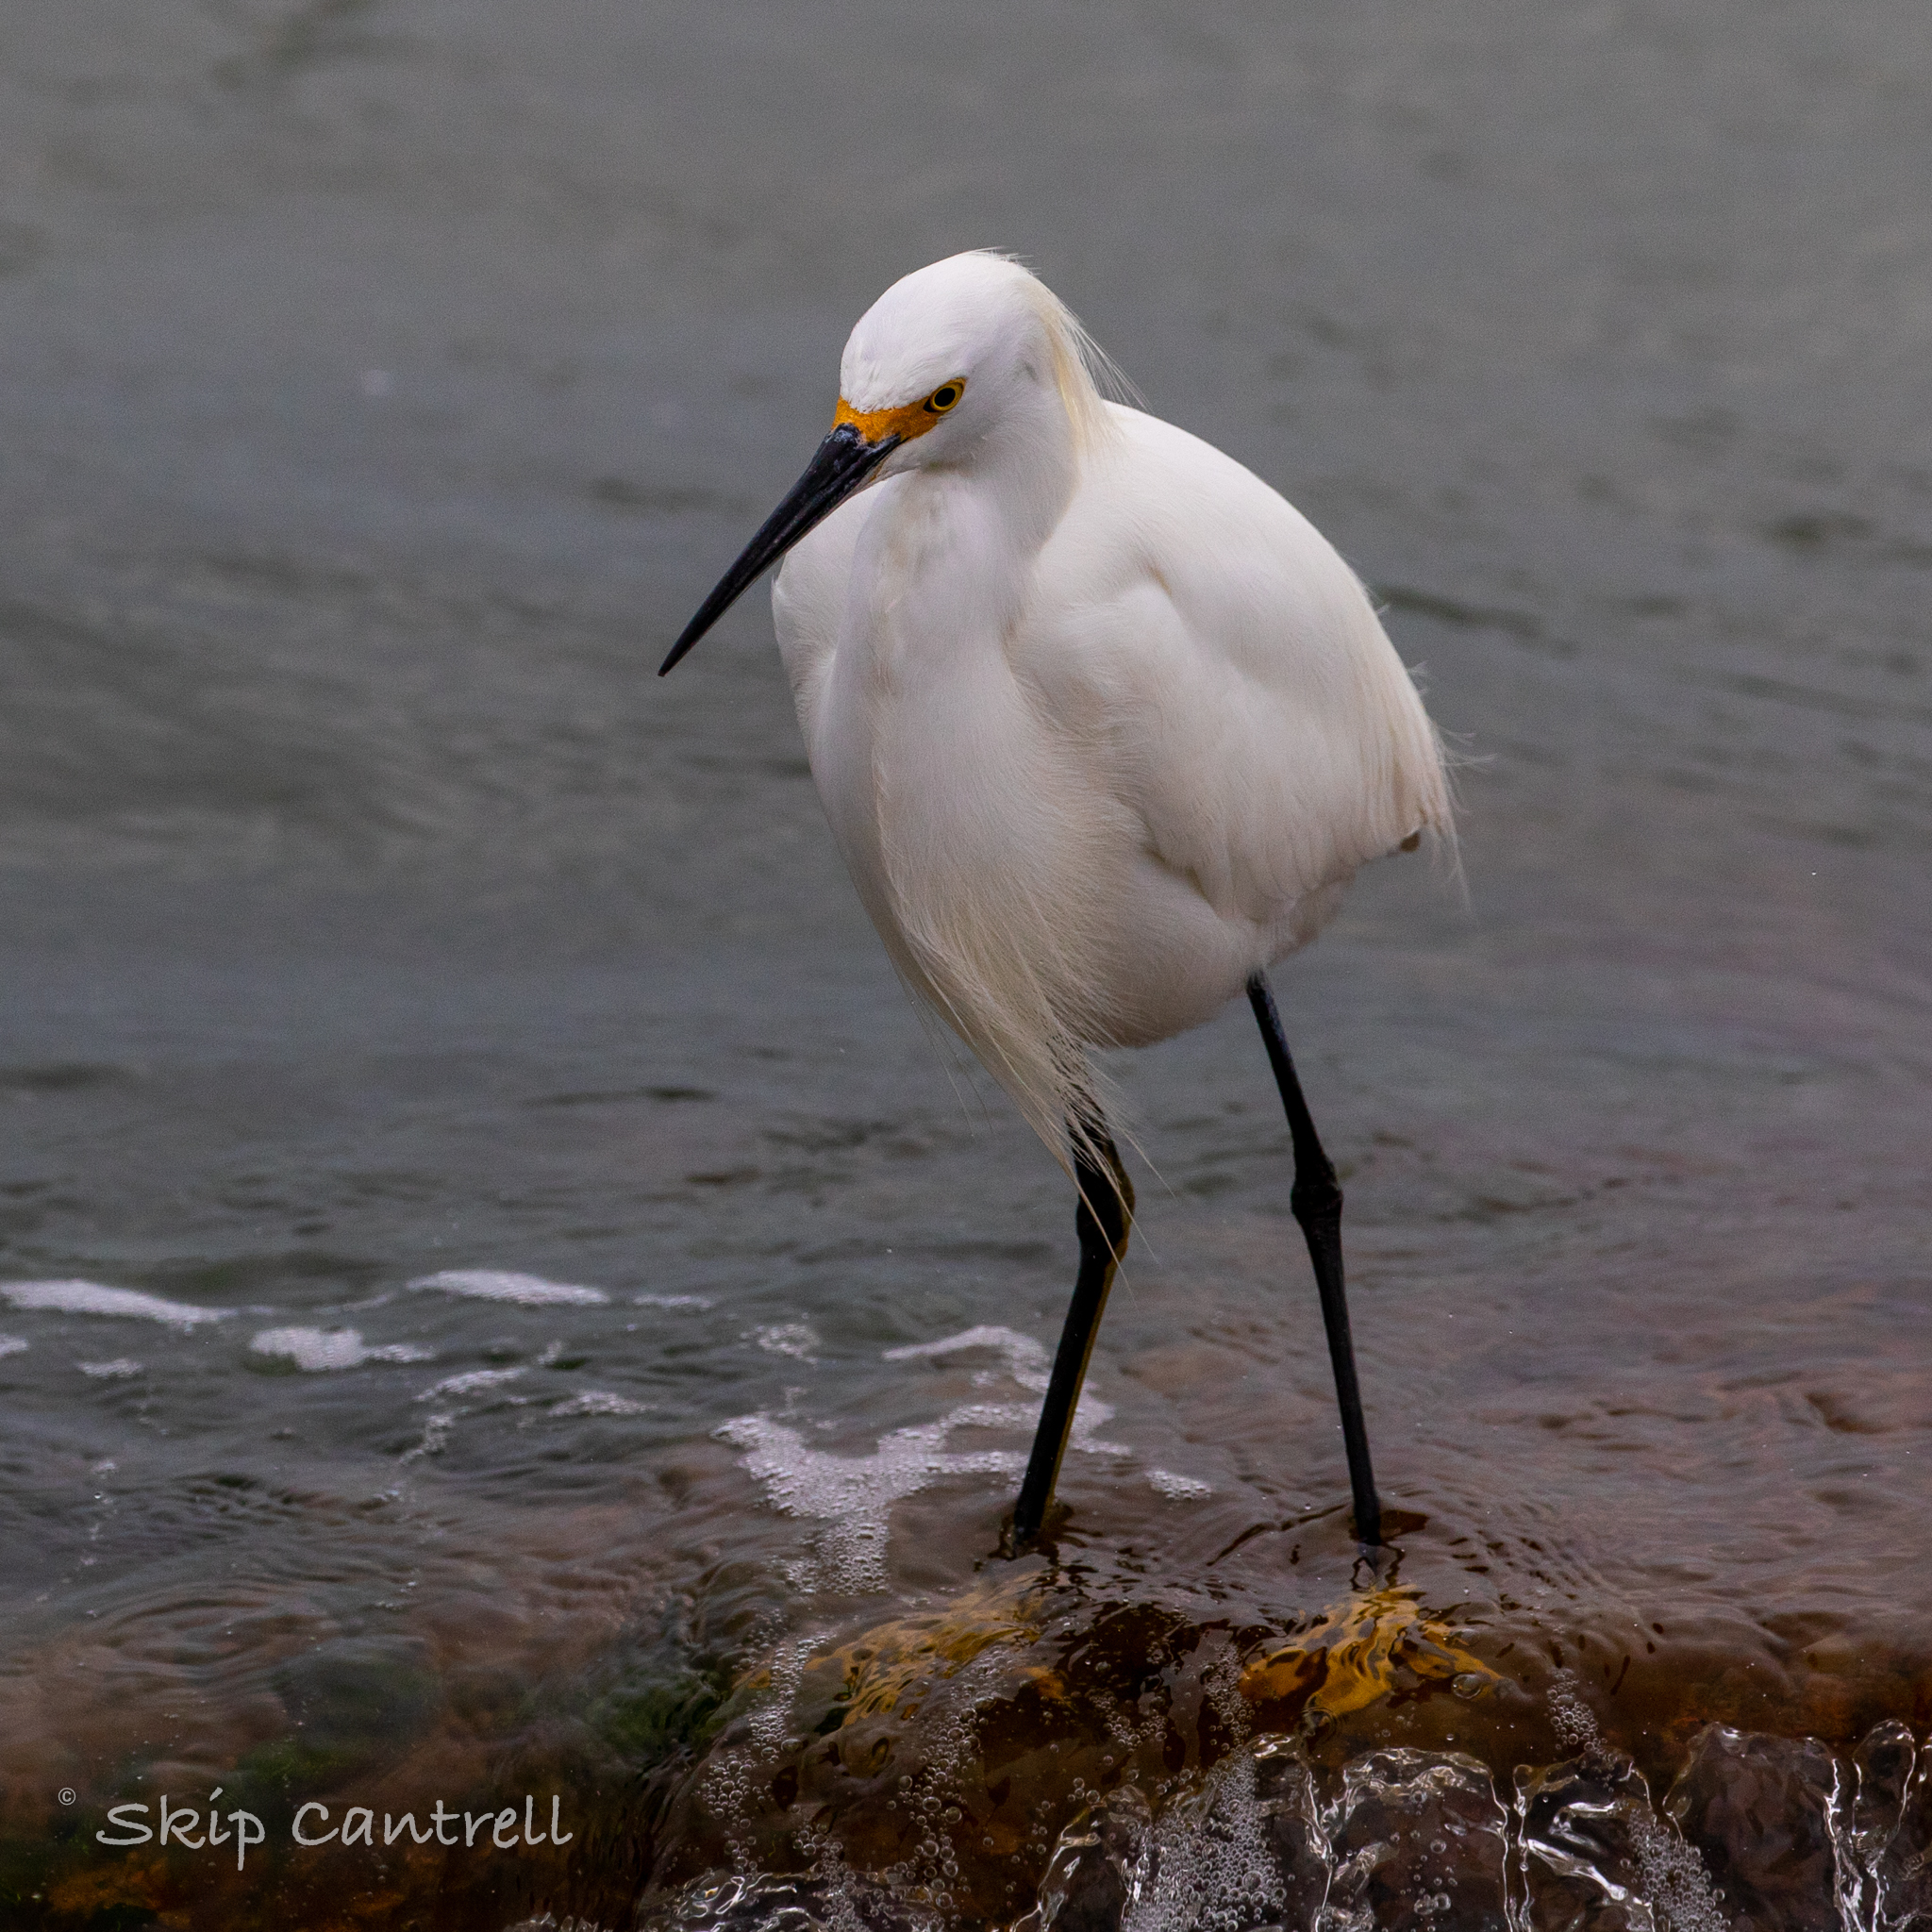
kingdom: Animalia
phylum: Chordata
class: Aves
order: Pelecaniformes
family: Ardeidae
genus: Egretta
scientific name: Egretta thula
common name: Snowy egret
